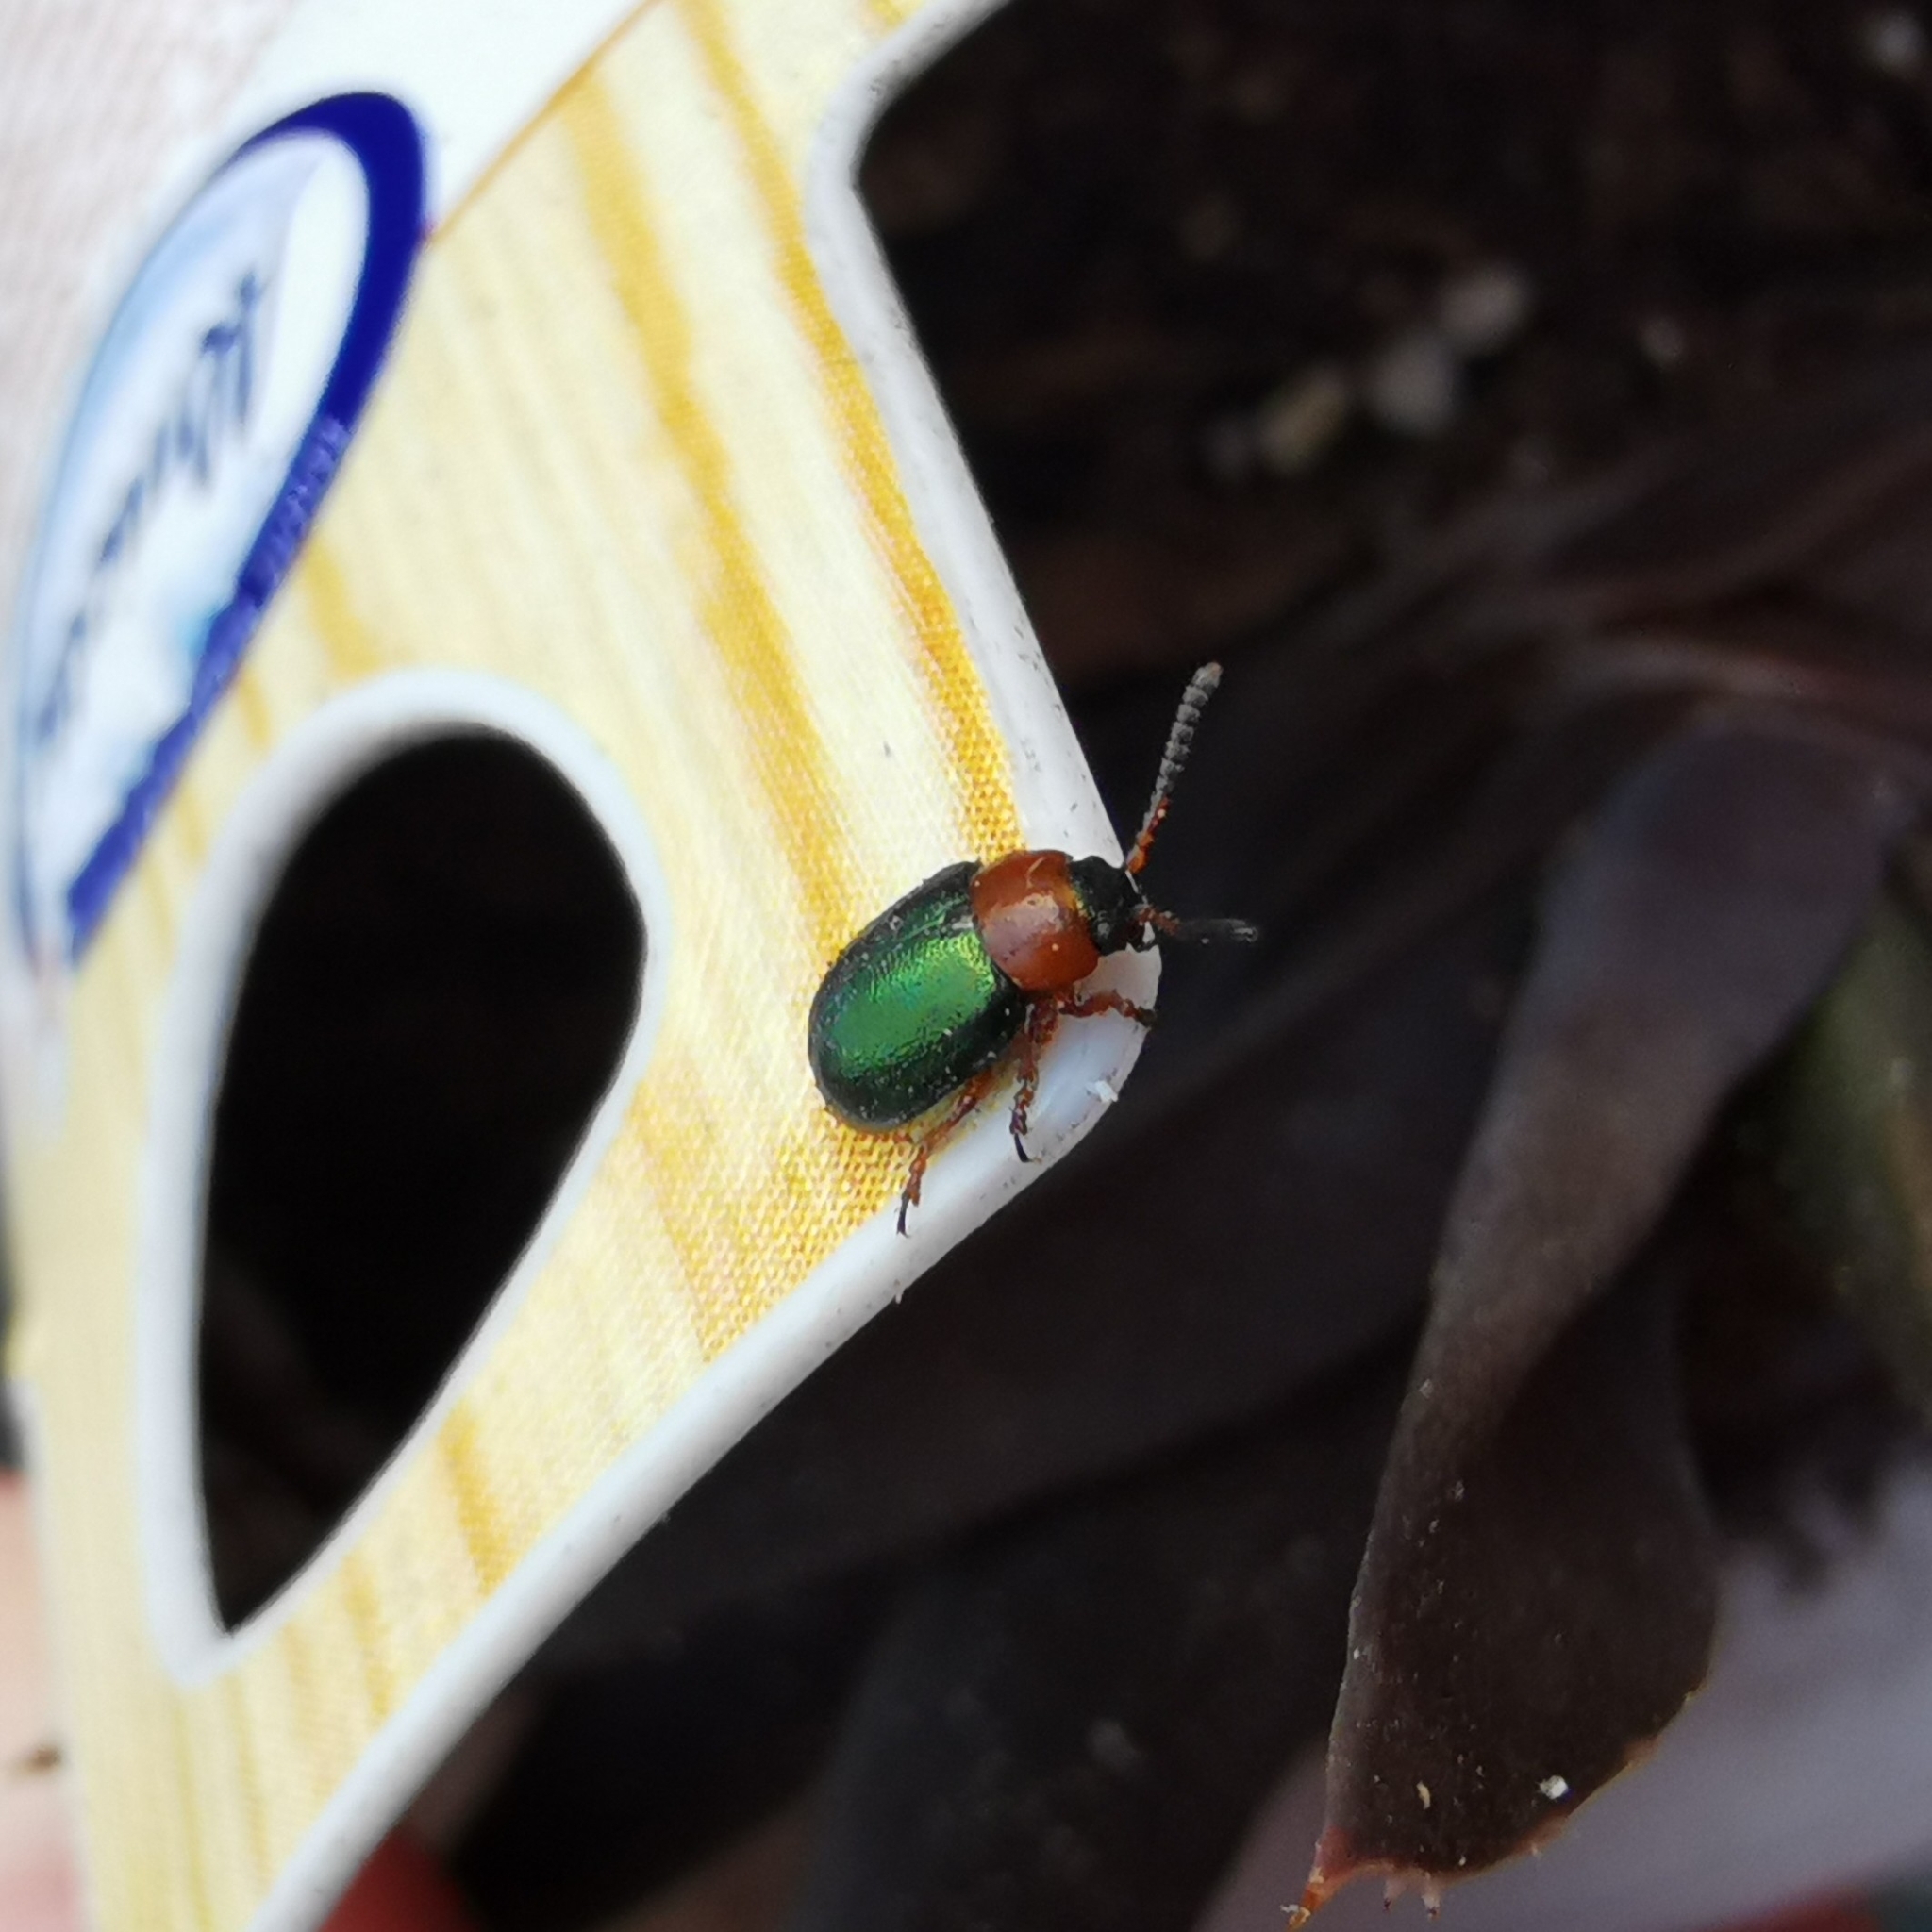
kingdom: Animalia
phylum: Arthropoda
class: Insecta
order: Coleoptera
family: Chrysomelidae
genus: Gastrophysa
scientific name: Gastrophysa polygoni
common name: Knotweed leaf beetle
